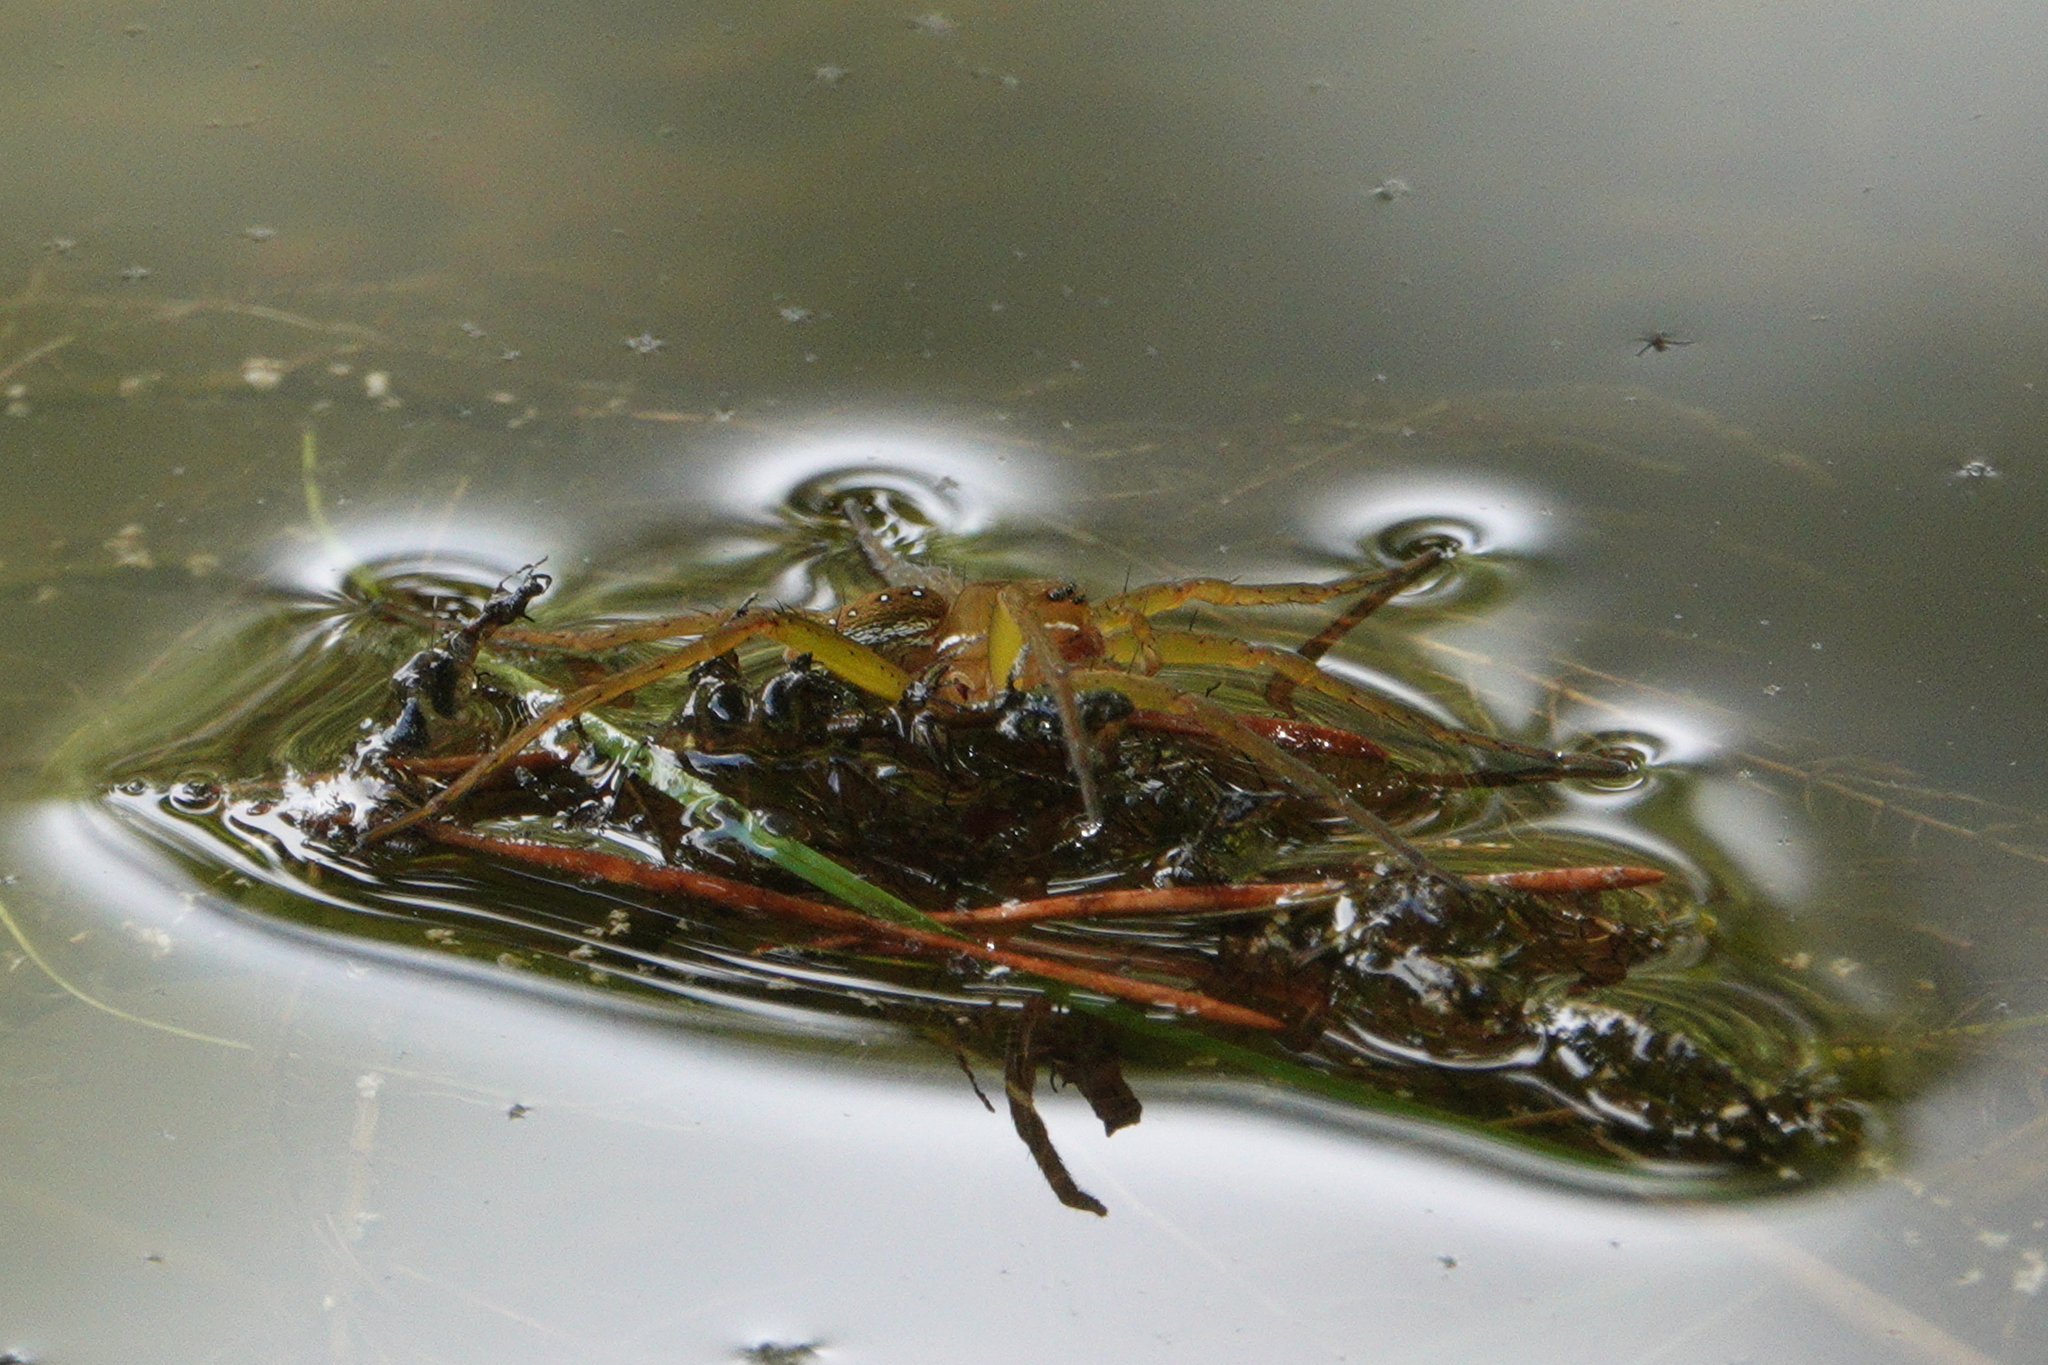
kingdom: Animalia
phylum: Arthropoda
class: Arachnida
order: Araneae
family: Pisauridae
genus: Dolomedes
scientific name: Dolomedes triton
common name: Six-spotted fishing spider
